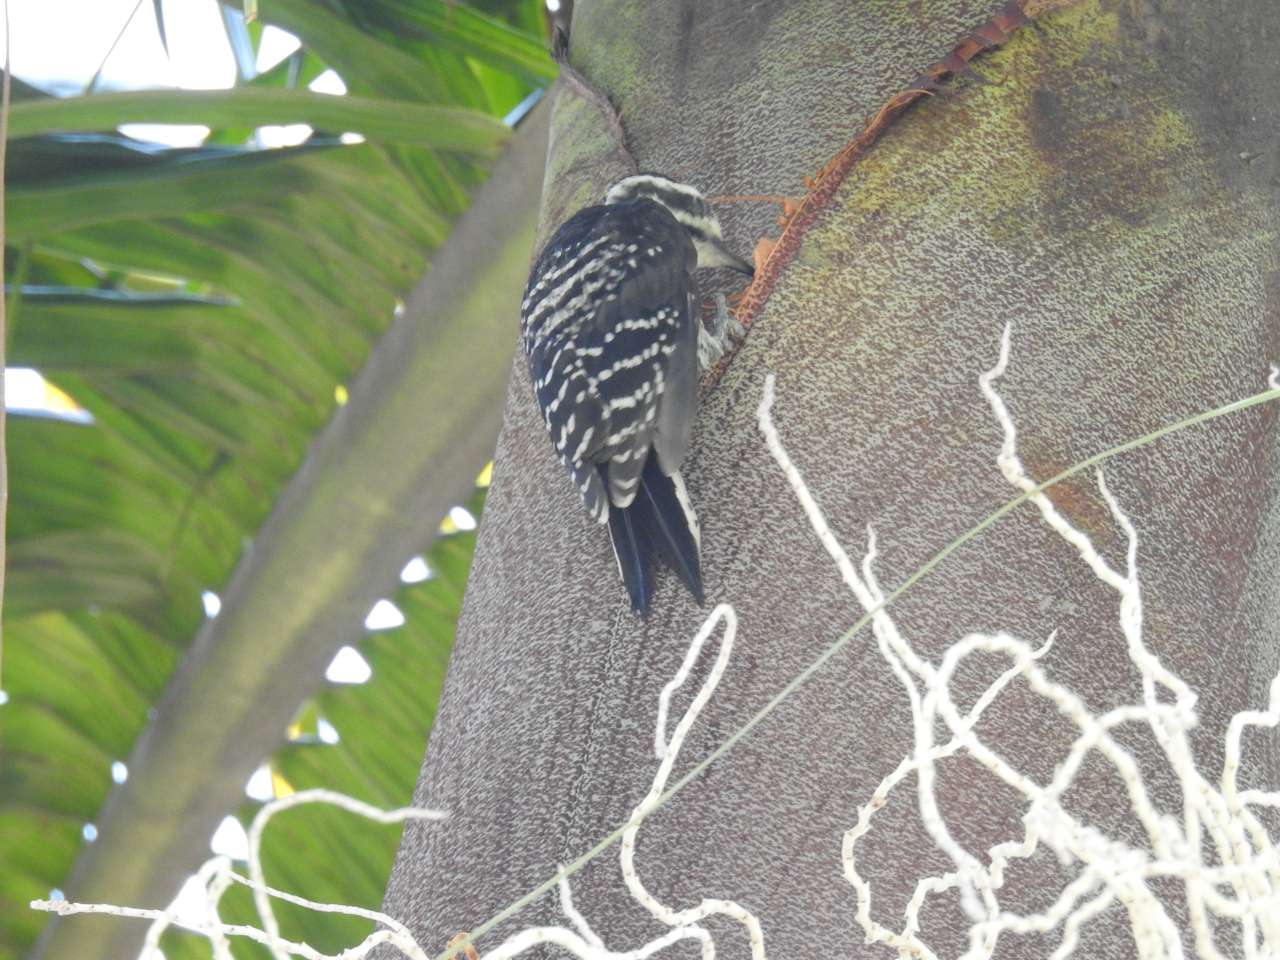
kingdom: Animalia
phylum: Chordata
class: Aves
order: Piciformes
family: Picidae
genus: Dryobates
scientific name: Dryobates nuttallii
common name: Nuttall's woodpecker
